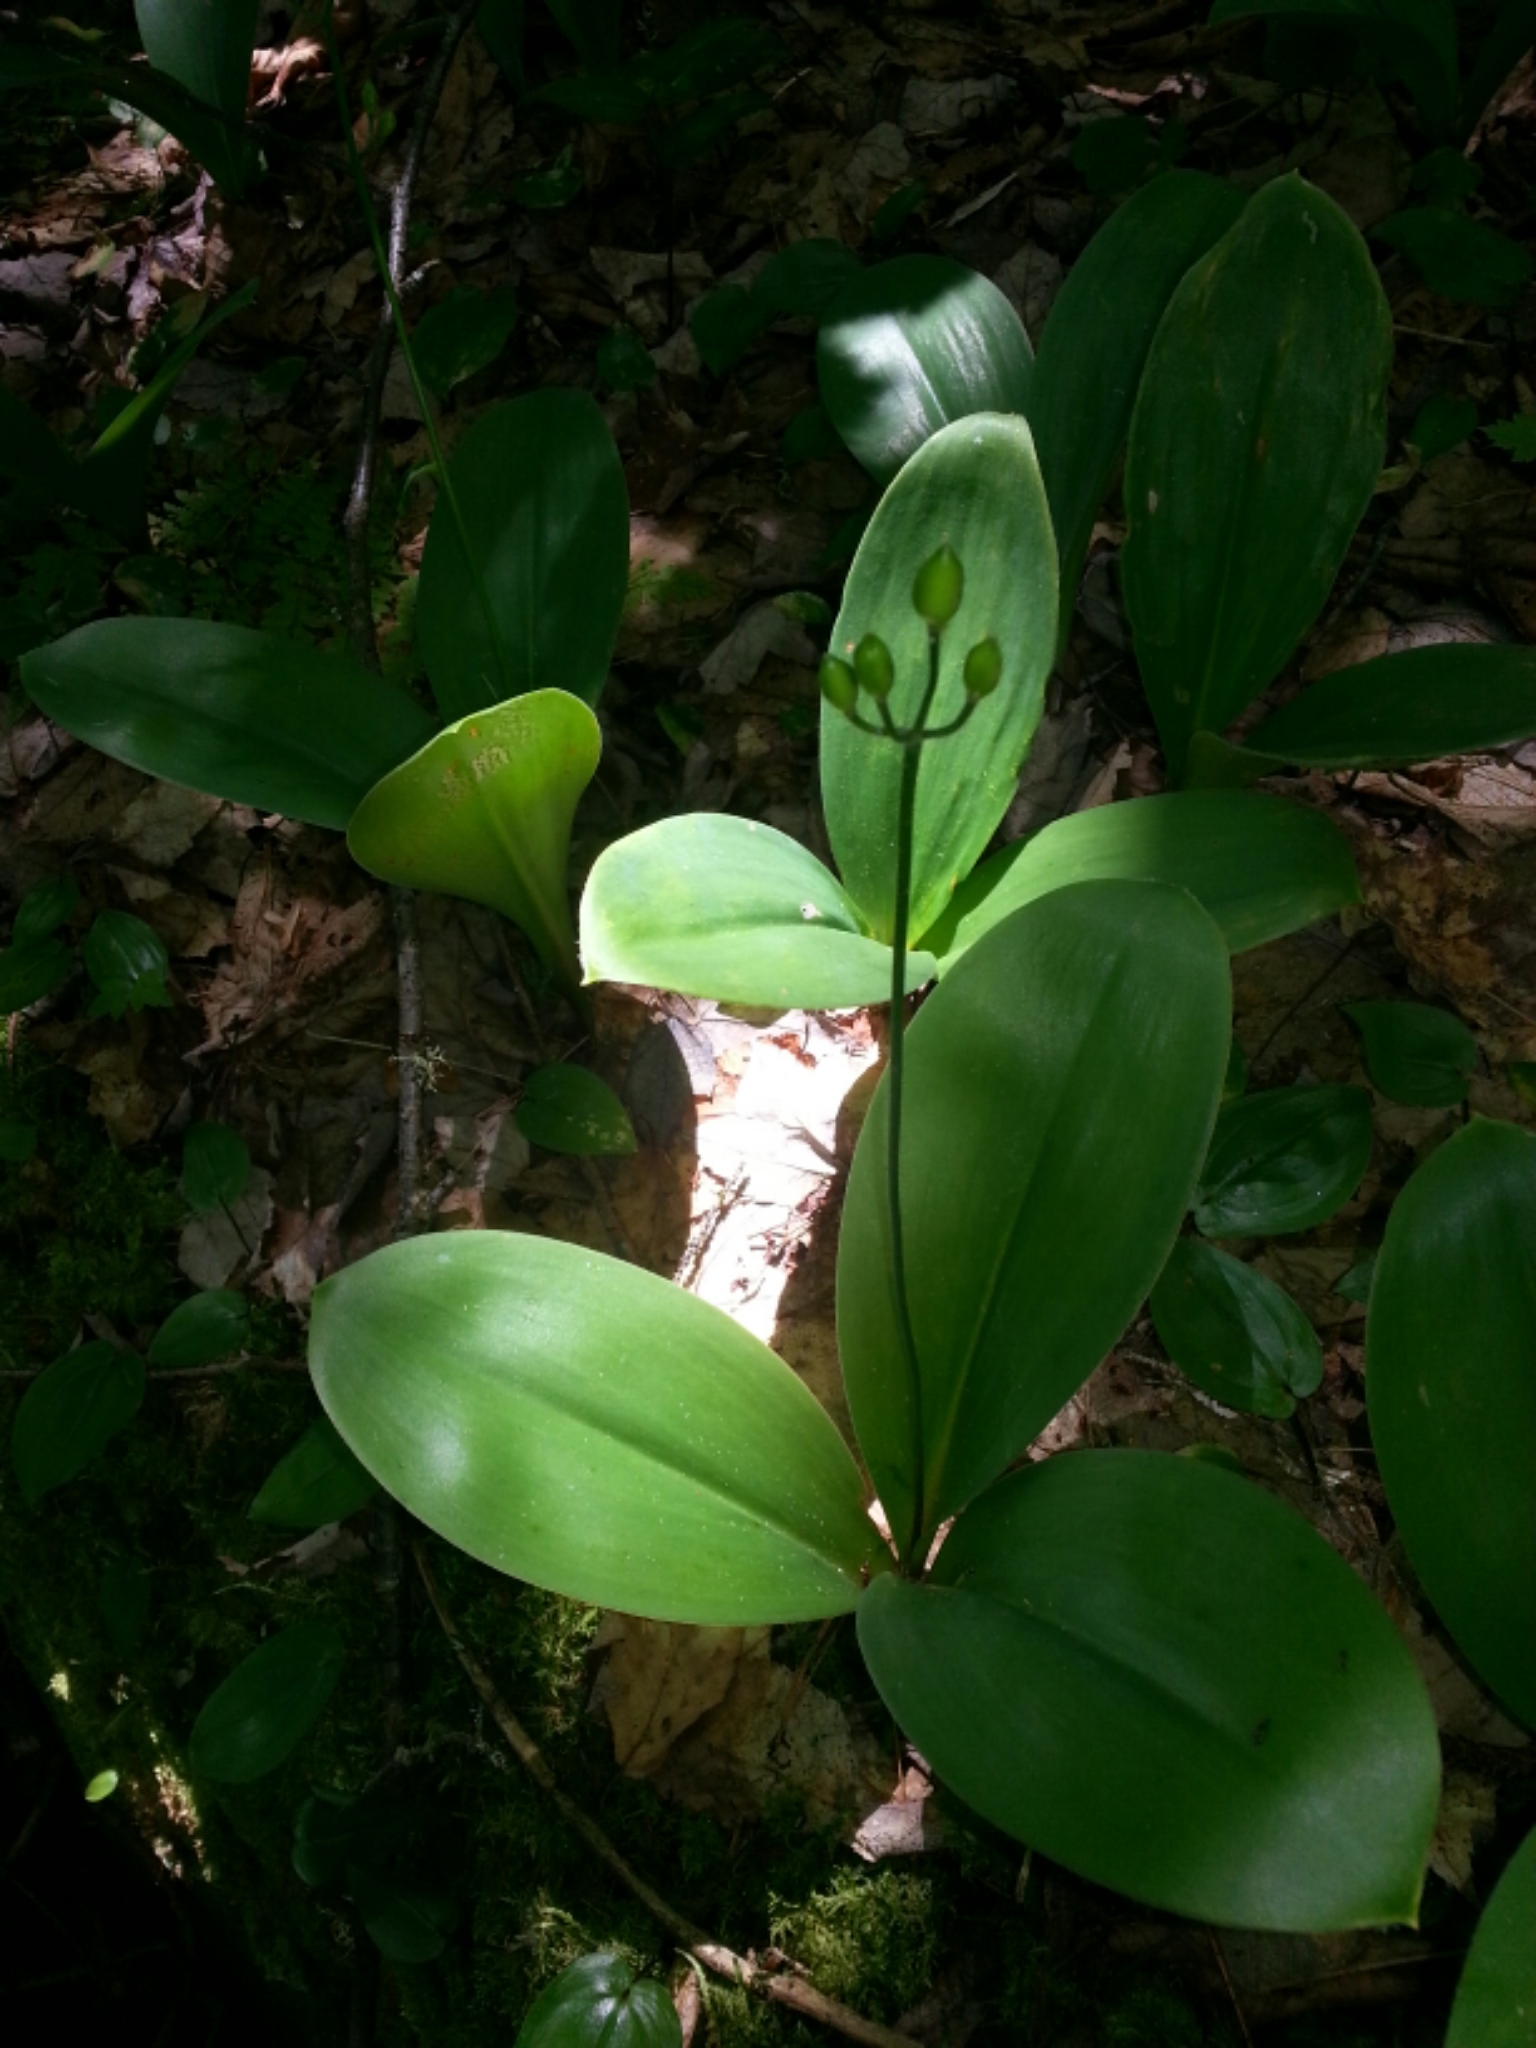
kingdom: Plantae
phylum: Tracheophyta
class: Liliopsida
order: Liliales
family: Liliaceae
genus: Clintonia
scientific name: Clintonia borealis
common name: Yellow clintonia
